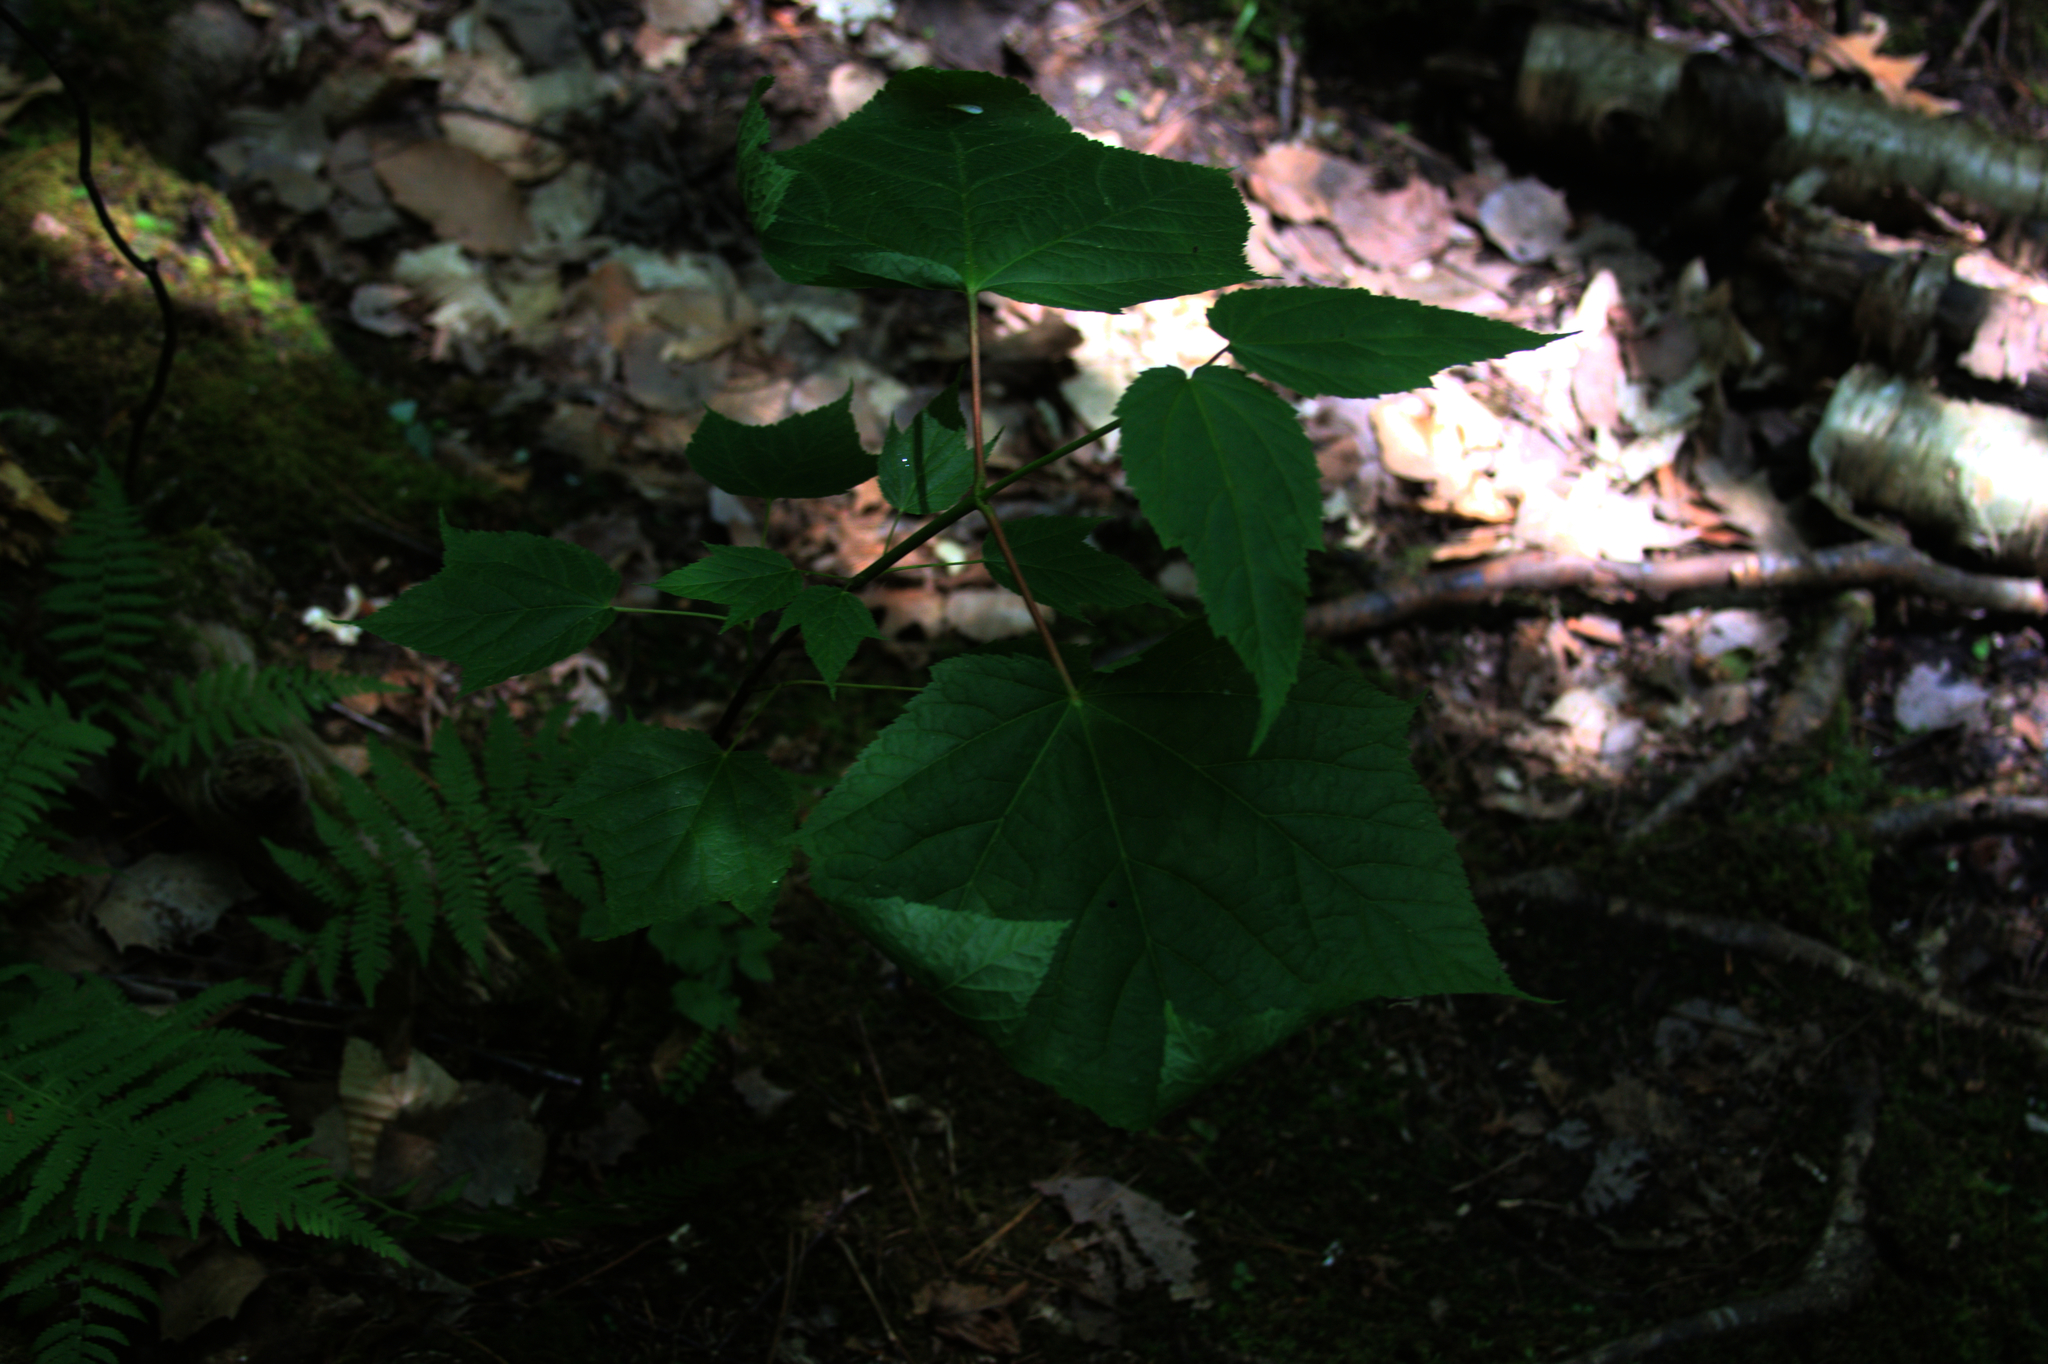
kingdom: Plantae
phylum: Tracheophyta
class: Magnoliopsida
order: Sapindales
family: Sapindaceae
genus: Acer
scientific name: Acer pensylvanicum
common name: Moosewood
